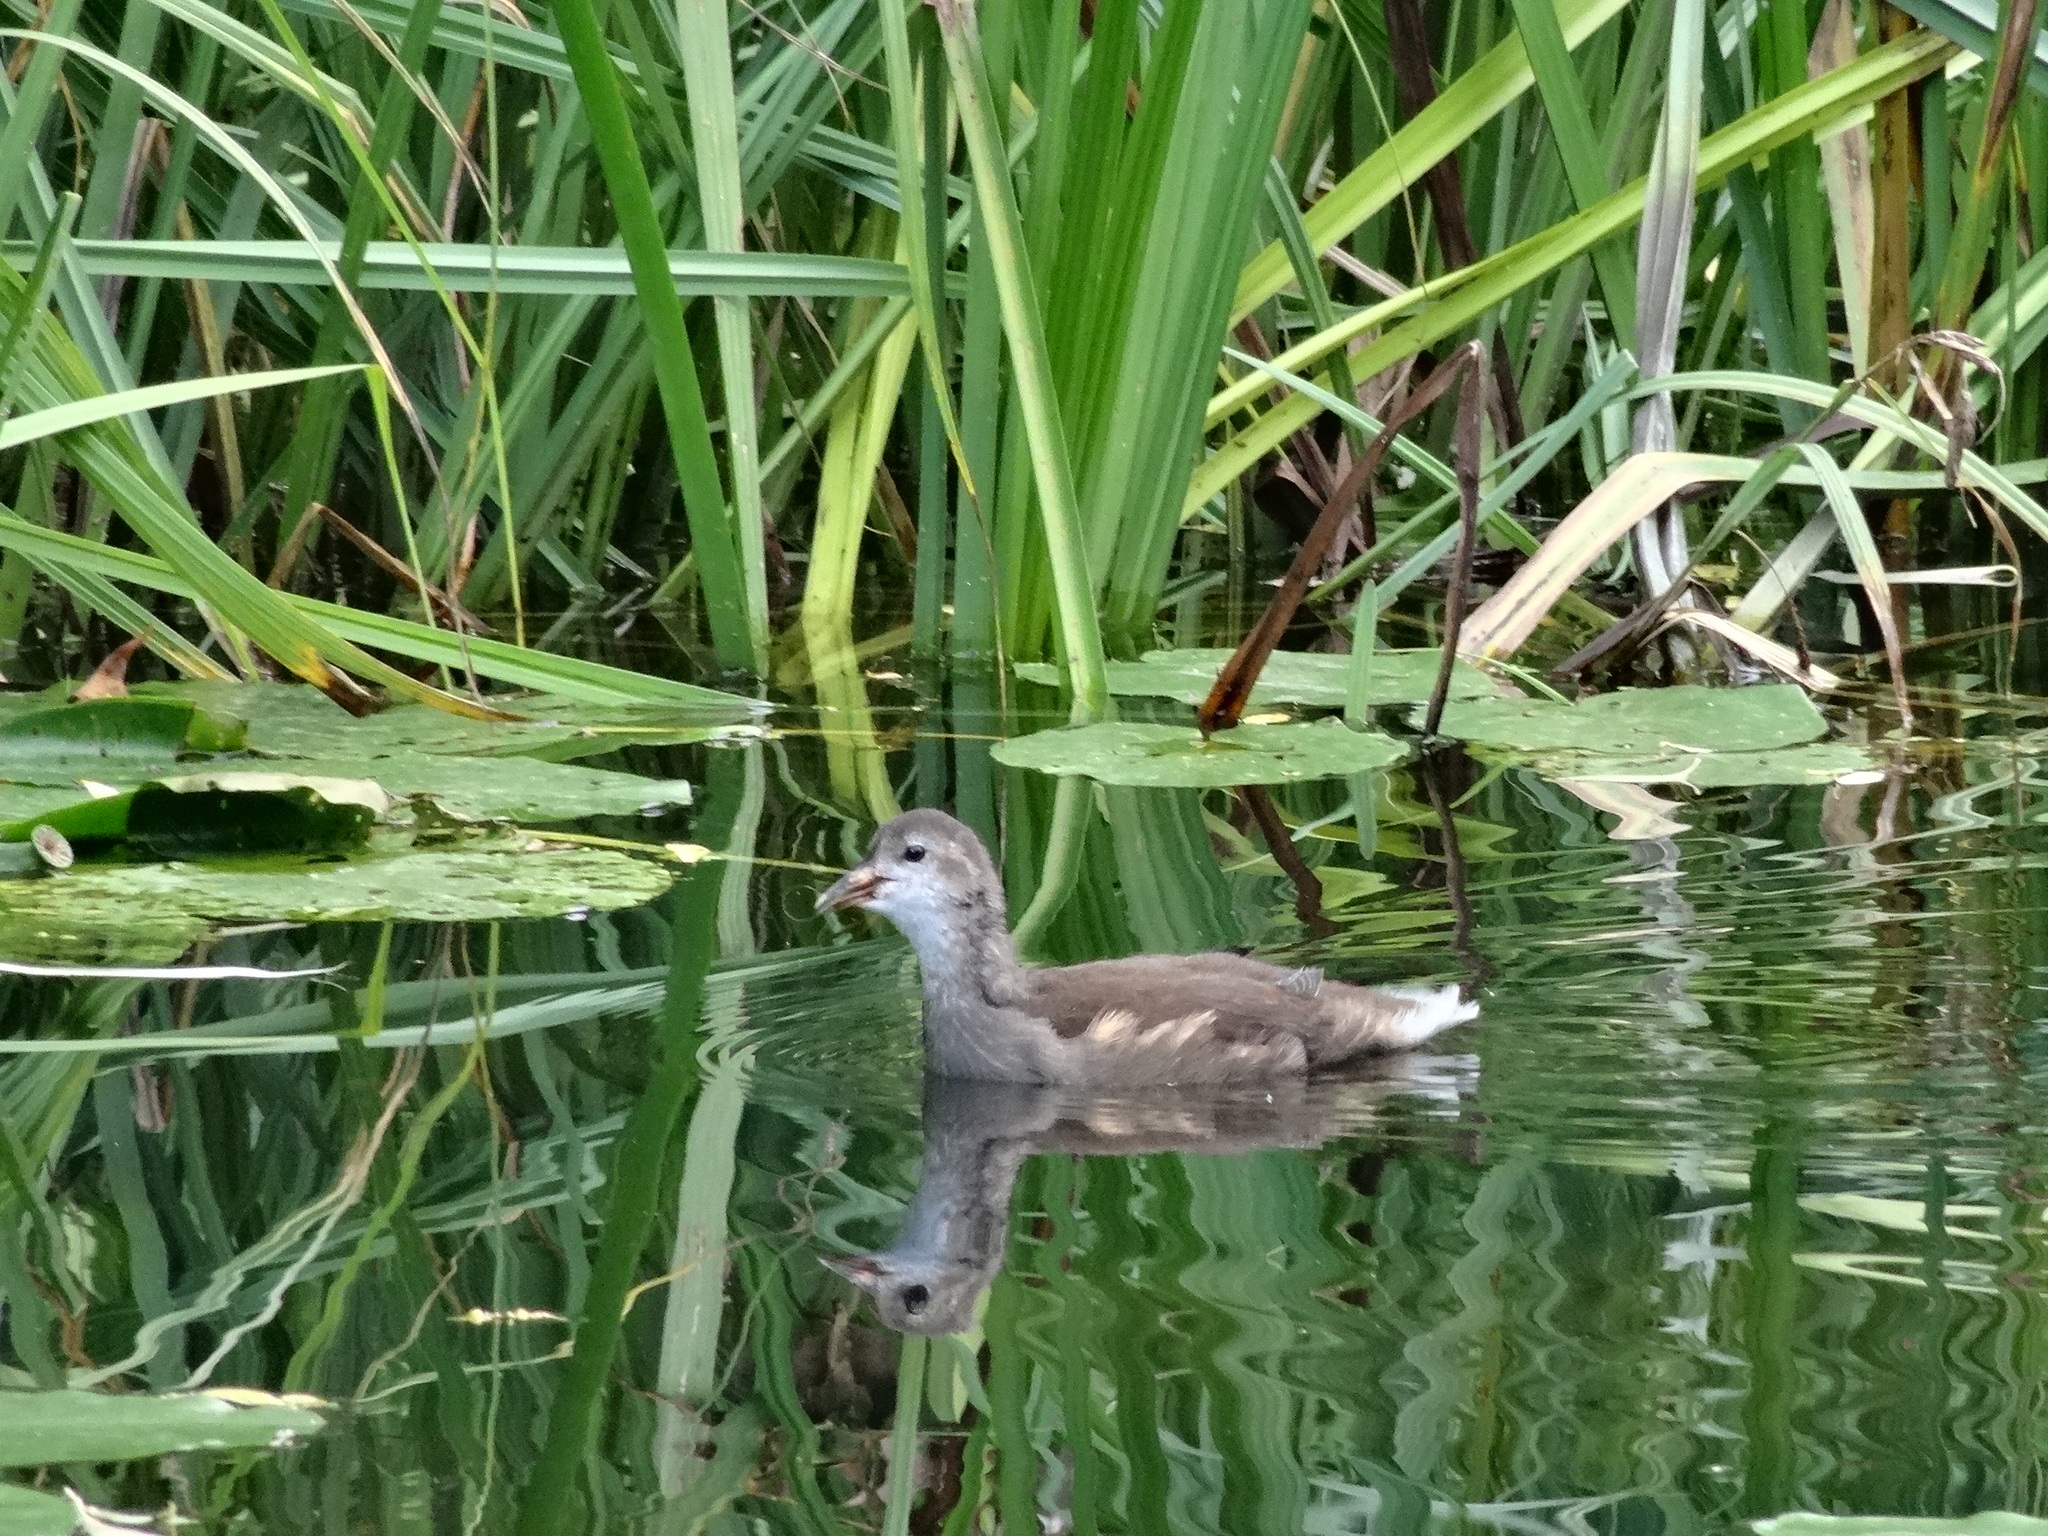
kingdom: Animalia
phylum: Chordata
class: Aves
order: Gruiformes
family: Rallidae
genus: Gallinula
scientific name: Gallinula chloropus
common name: Common moorhen
